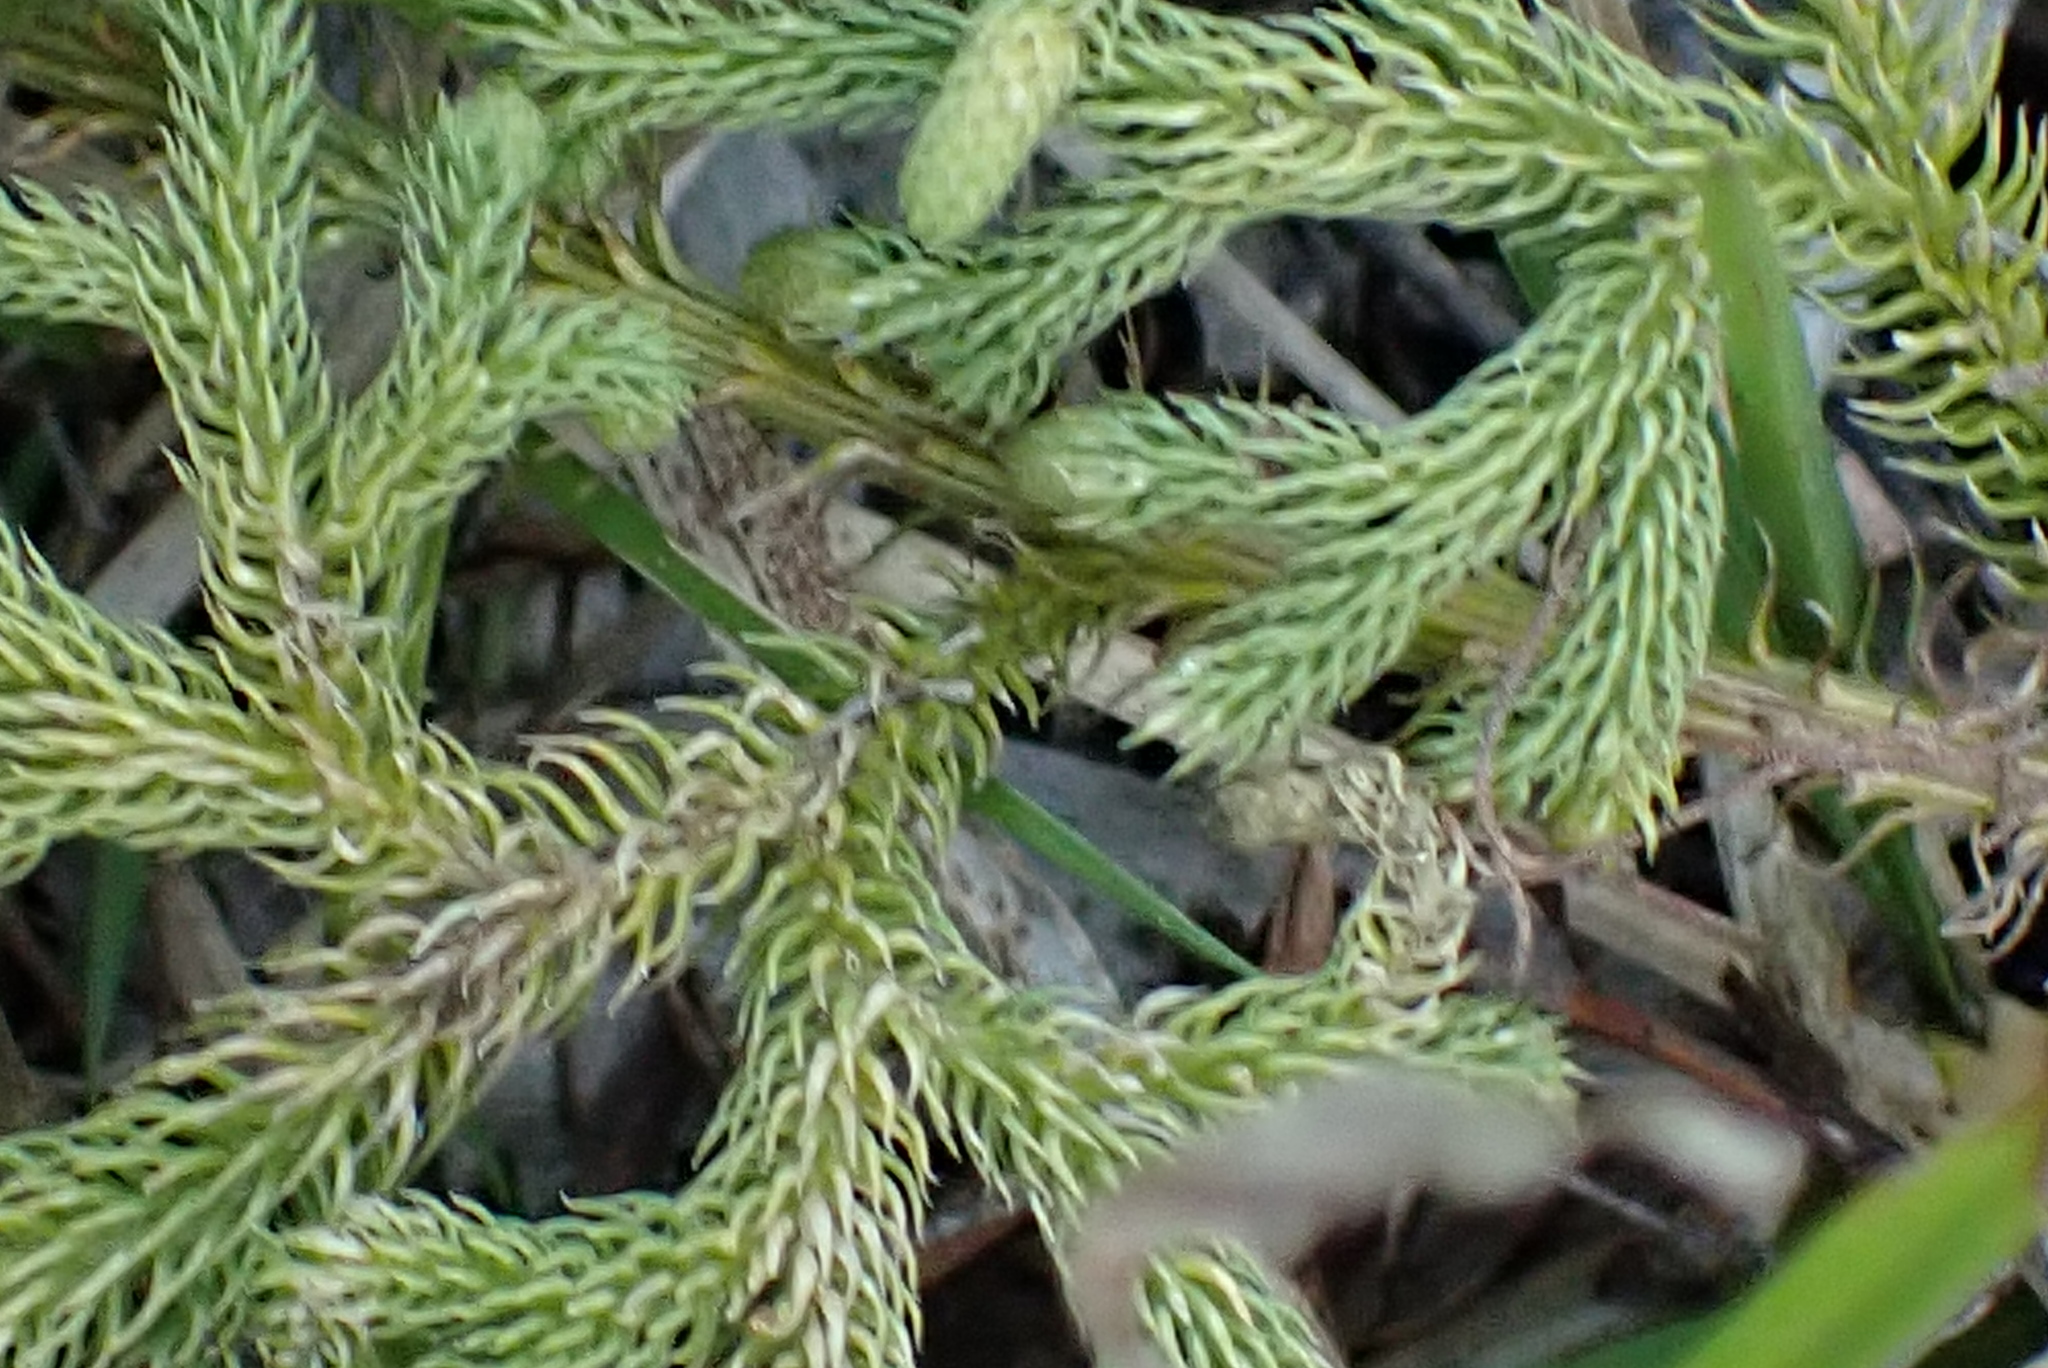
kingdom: Plantae
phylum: Tracheophyta
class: Lycopodiopsida
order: Lycopodiales
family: Lycopodiaceae
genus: Palhinhaea
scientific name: Palhinhaea cernua
